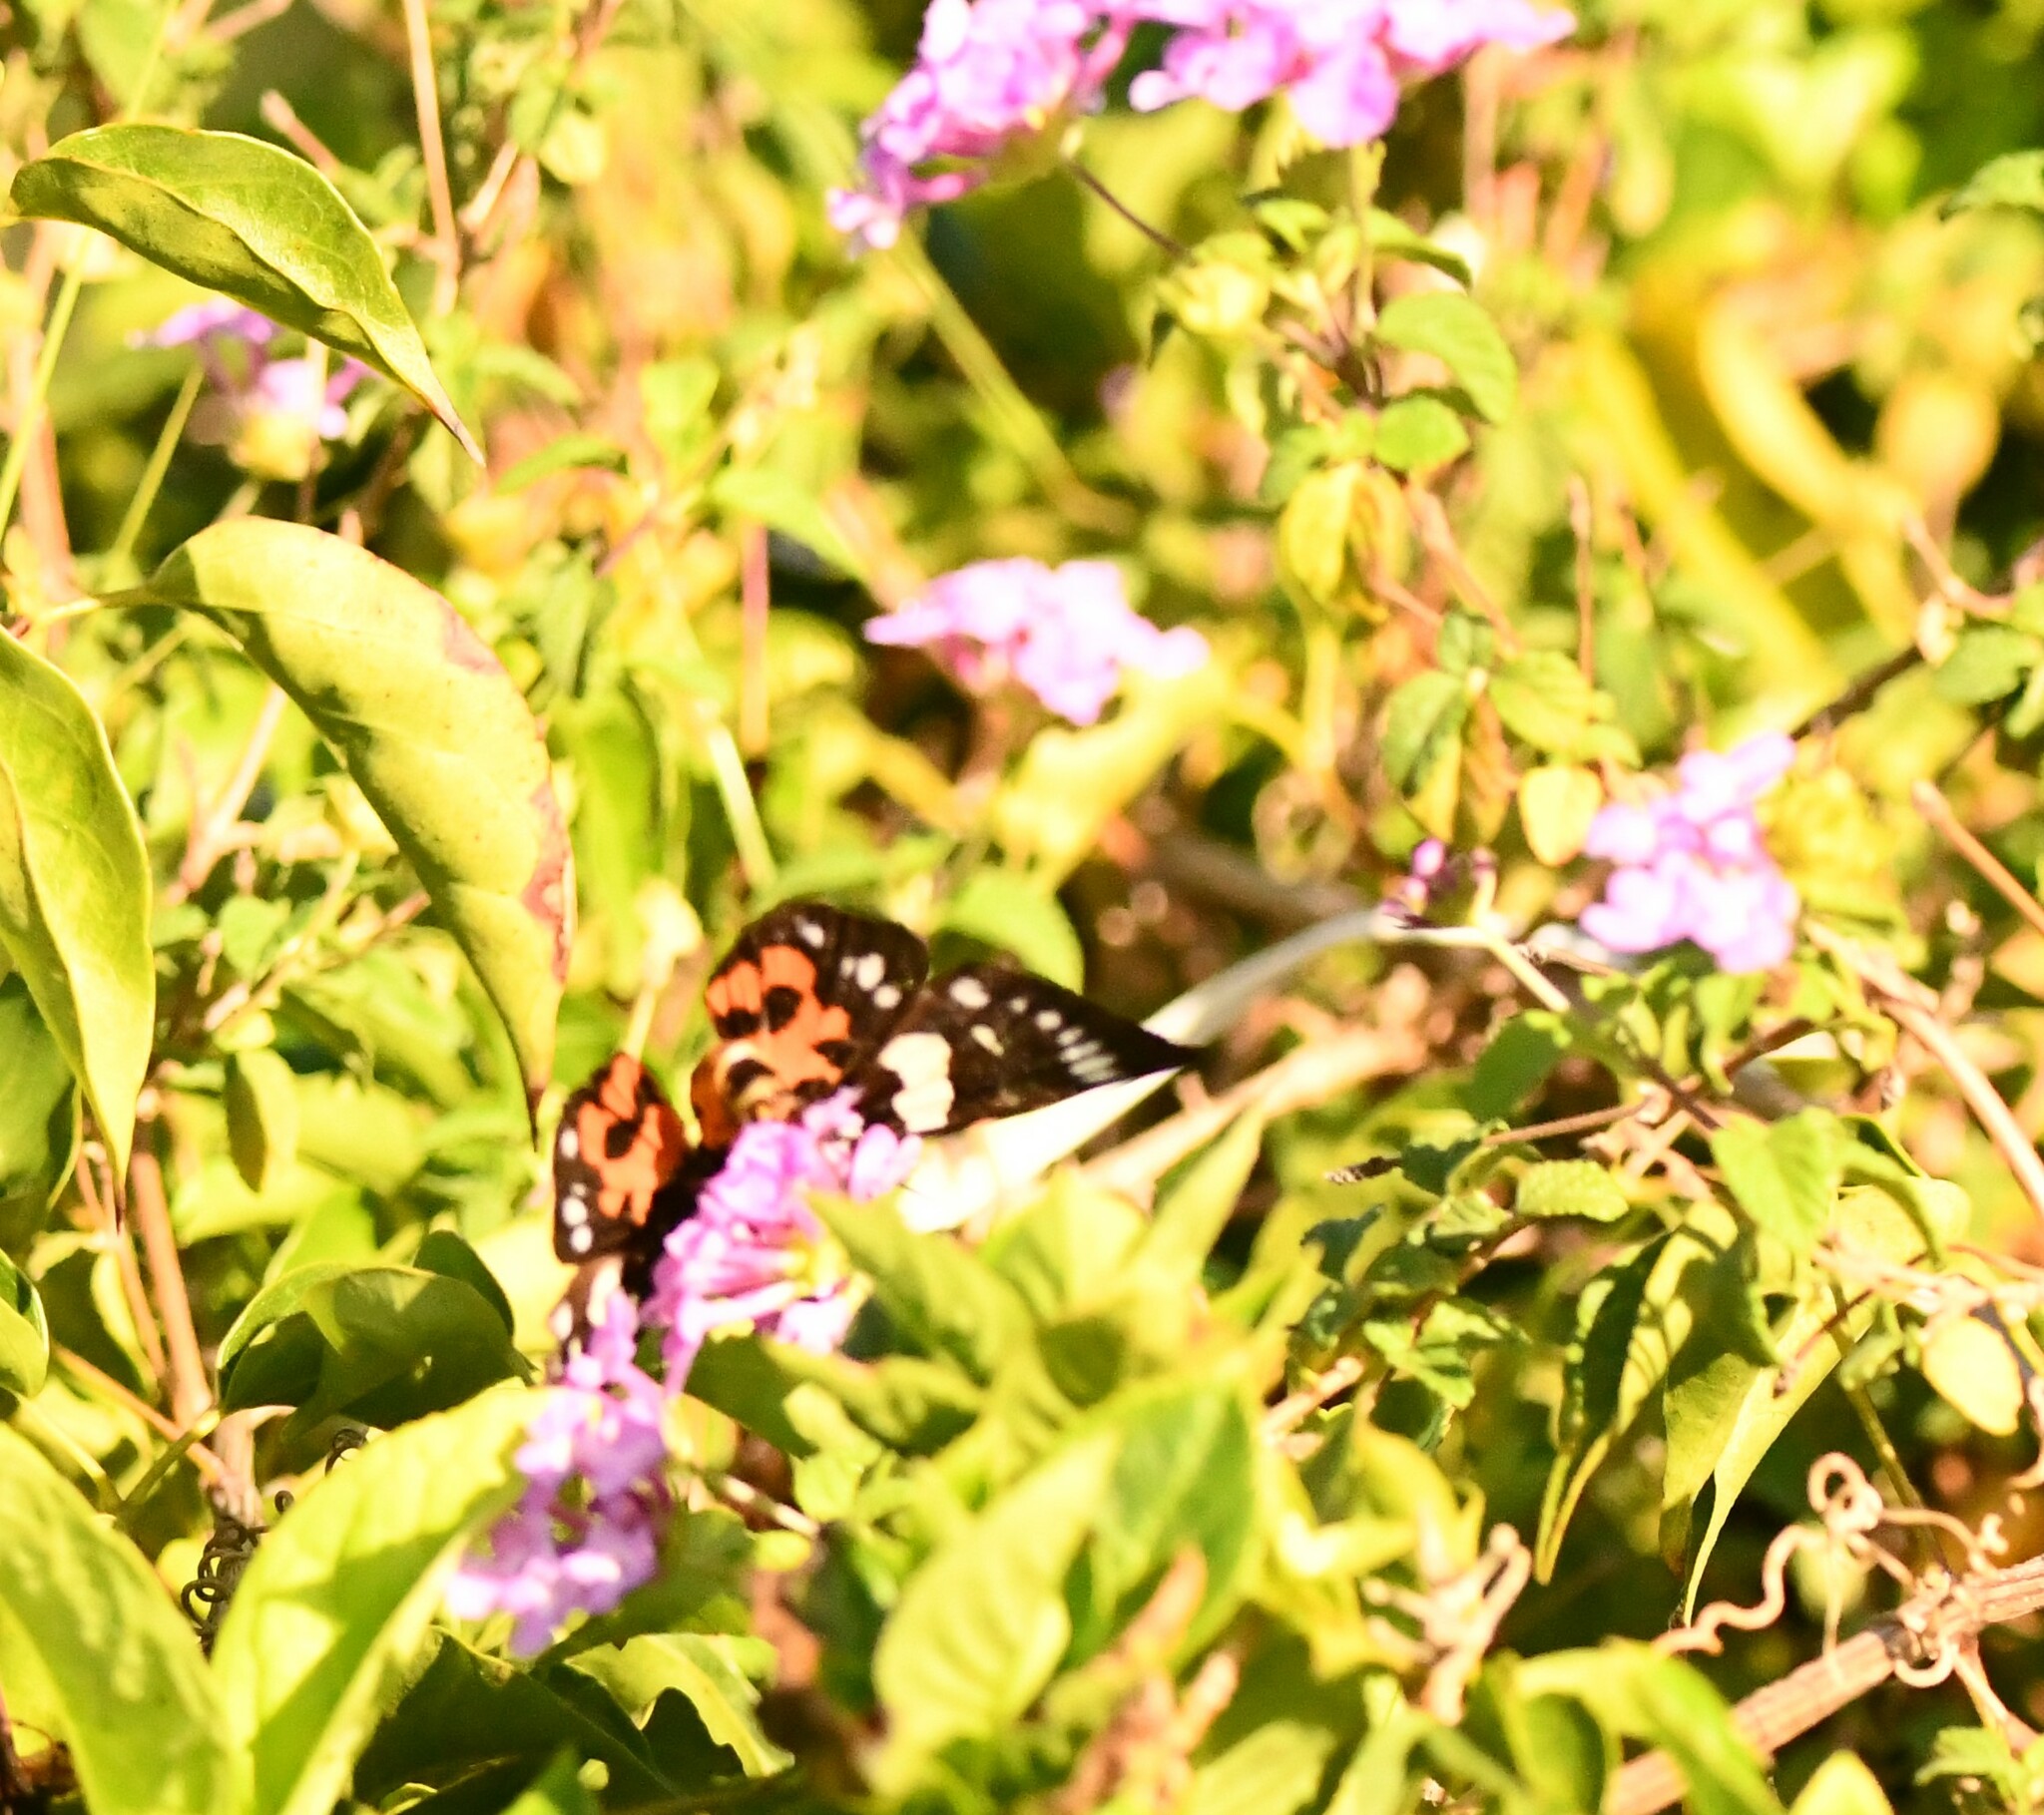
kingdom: Animalia
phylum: Arthropoda
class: Insecta
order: Lepidoptera
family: Noctuidae
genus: Episteme
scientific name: Episteme latimargo
